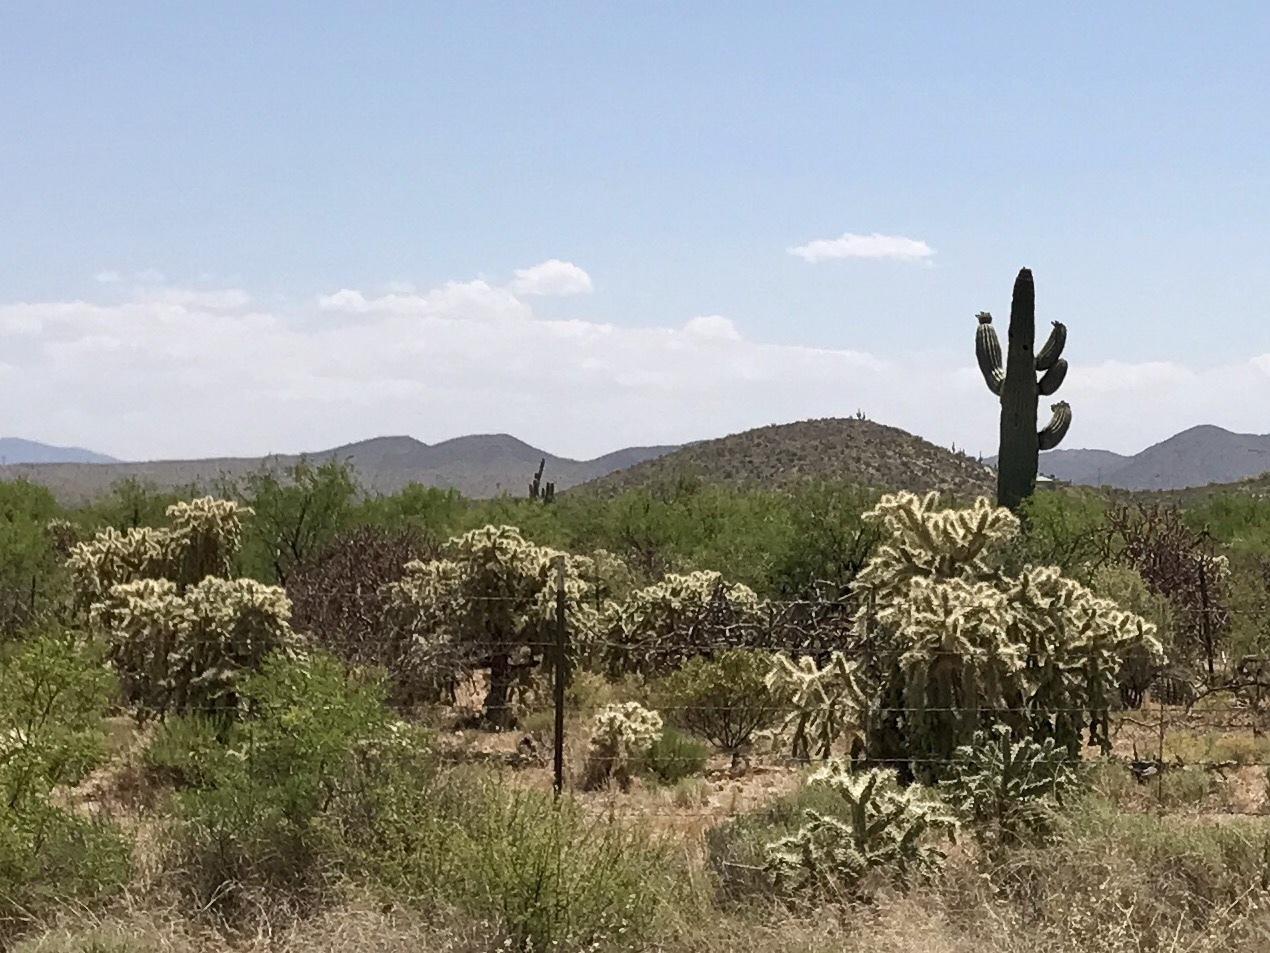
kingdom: Plantae
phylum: Tracheophyta
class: Magnoliopsida
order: Caryophyllales
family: Cactaceae
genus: Cylindropuntia
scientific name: Cylindropuntia fulgida
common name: Jumping cholla
